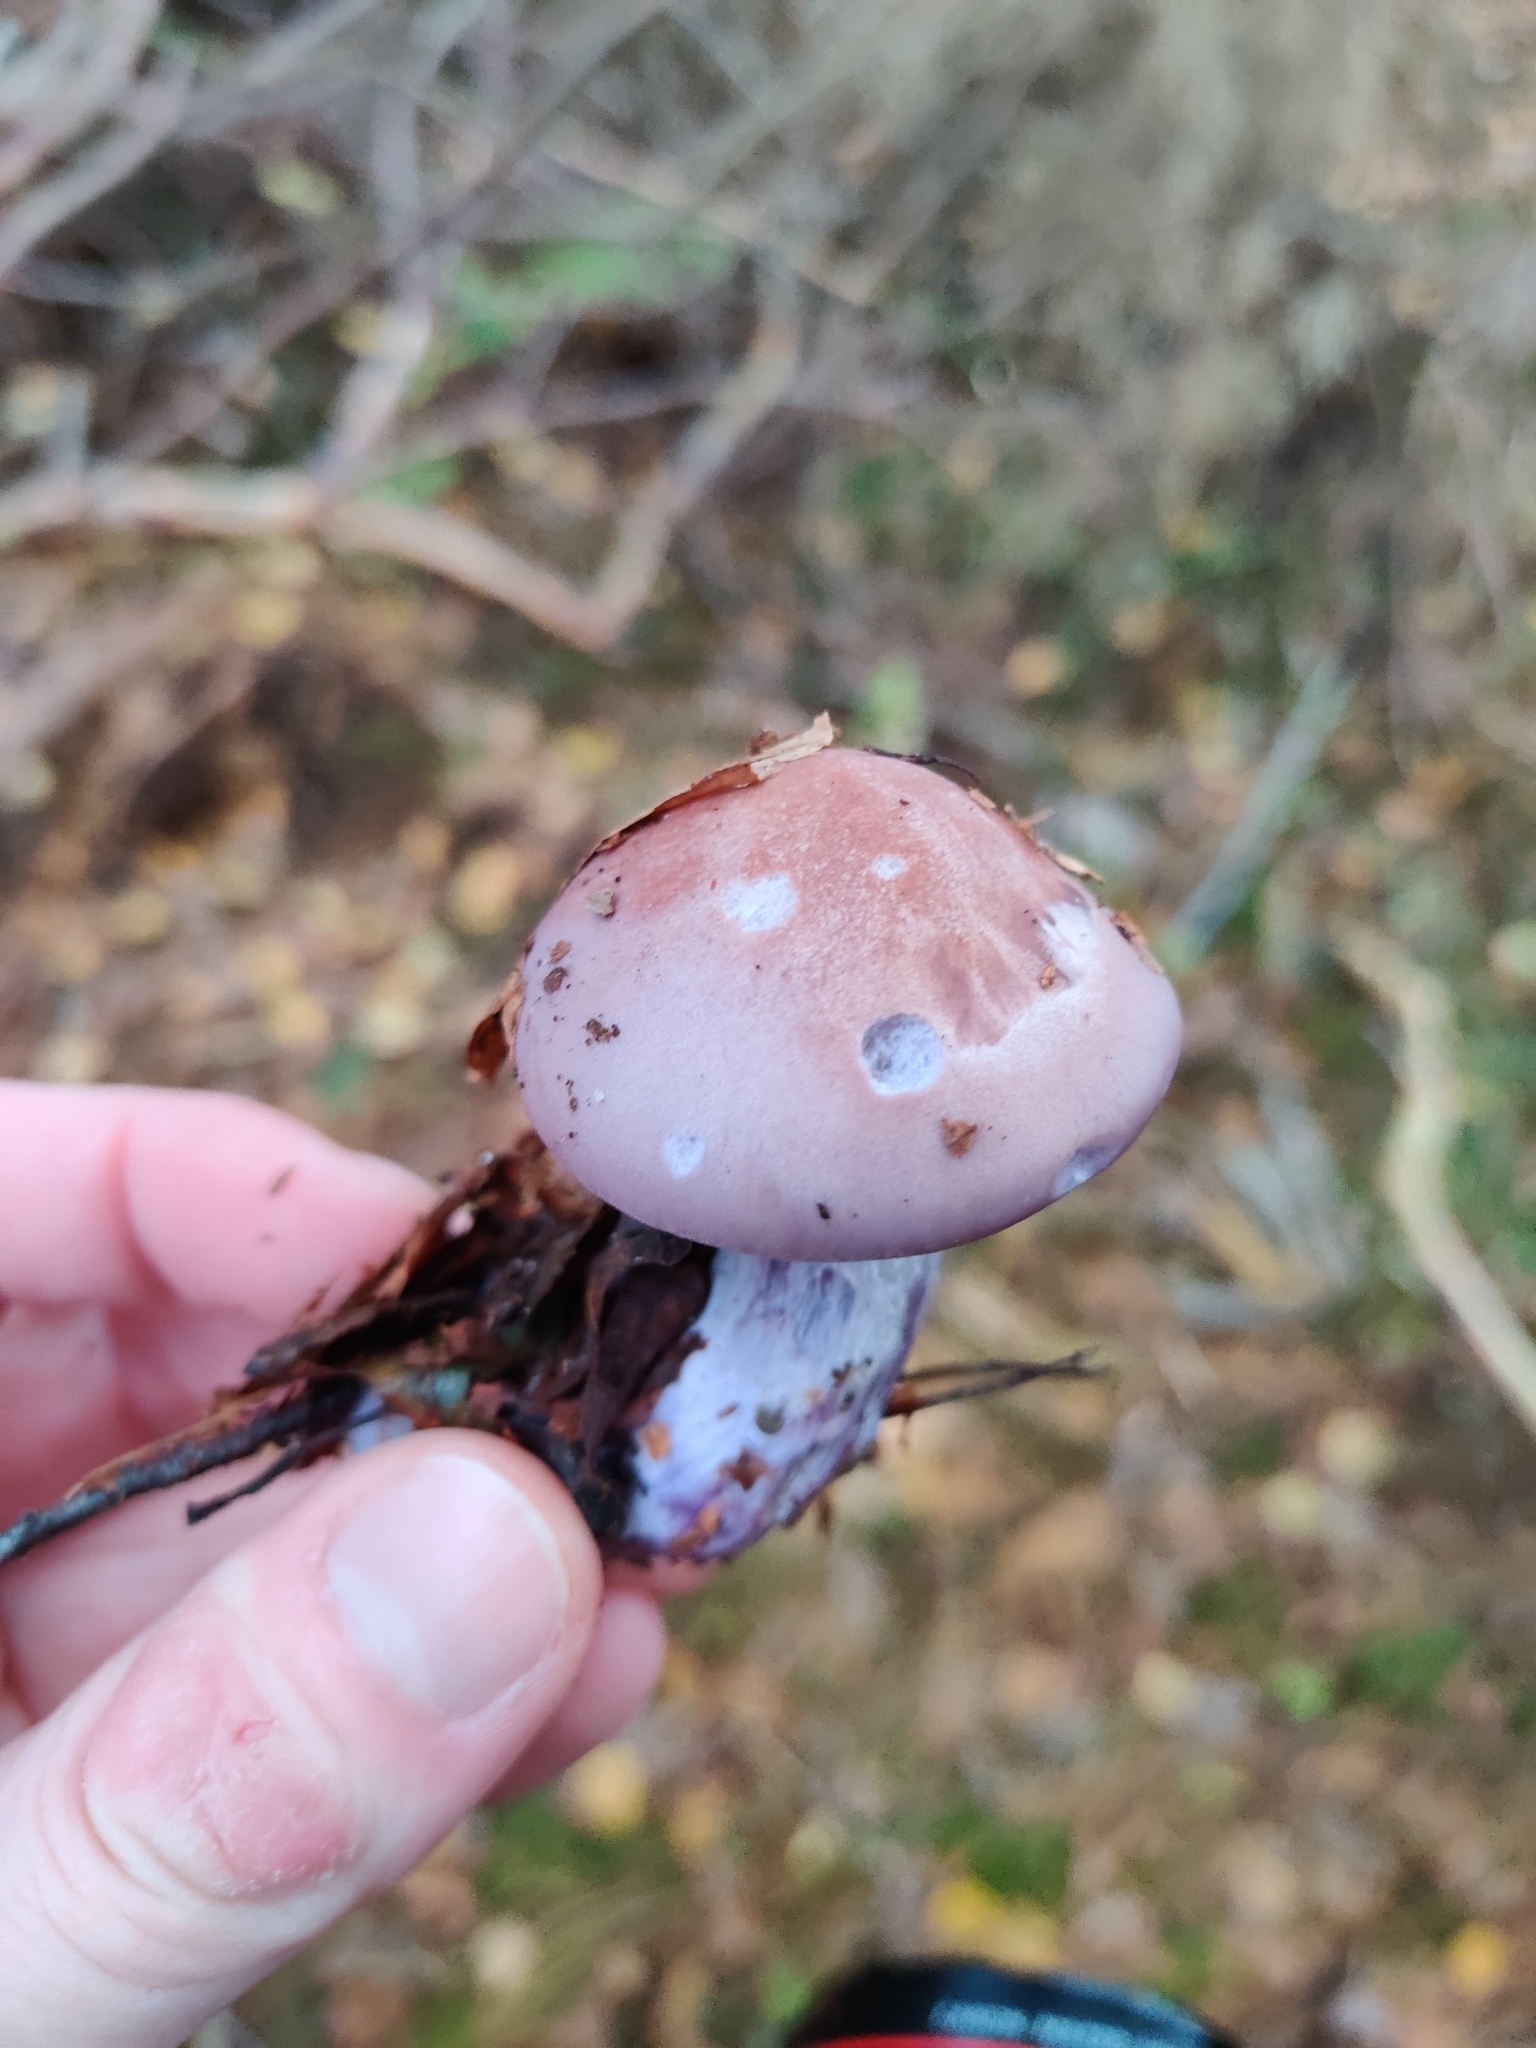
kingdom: Fungi
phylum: Basidiomycota
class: Agaricomycetes
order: Agaricales
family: Tricholomataceae
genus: Collybia
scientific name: Collybia
